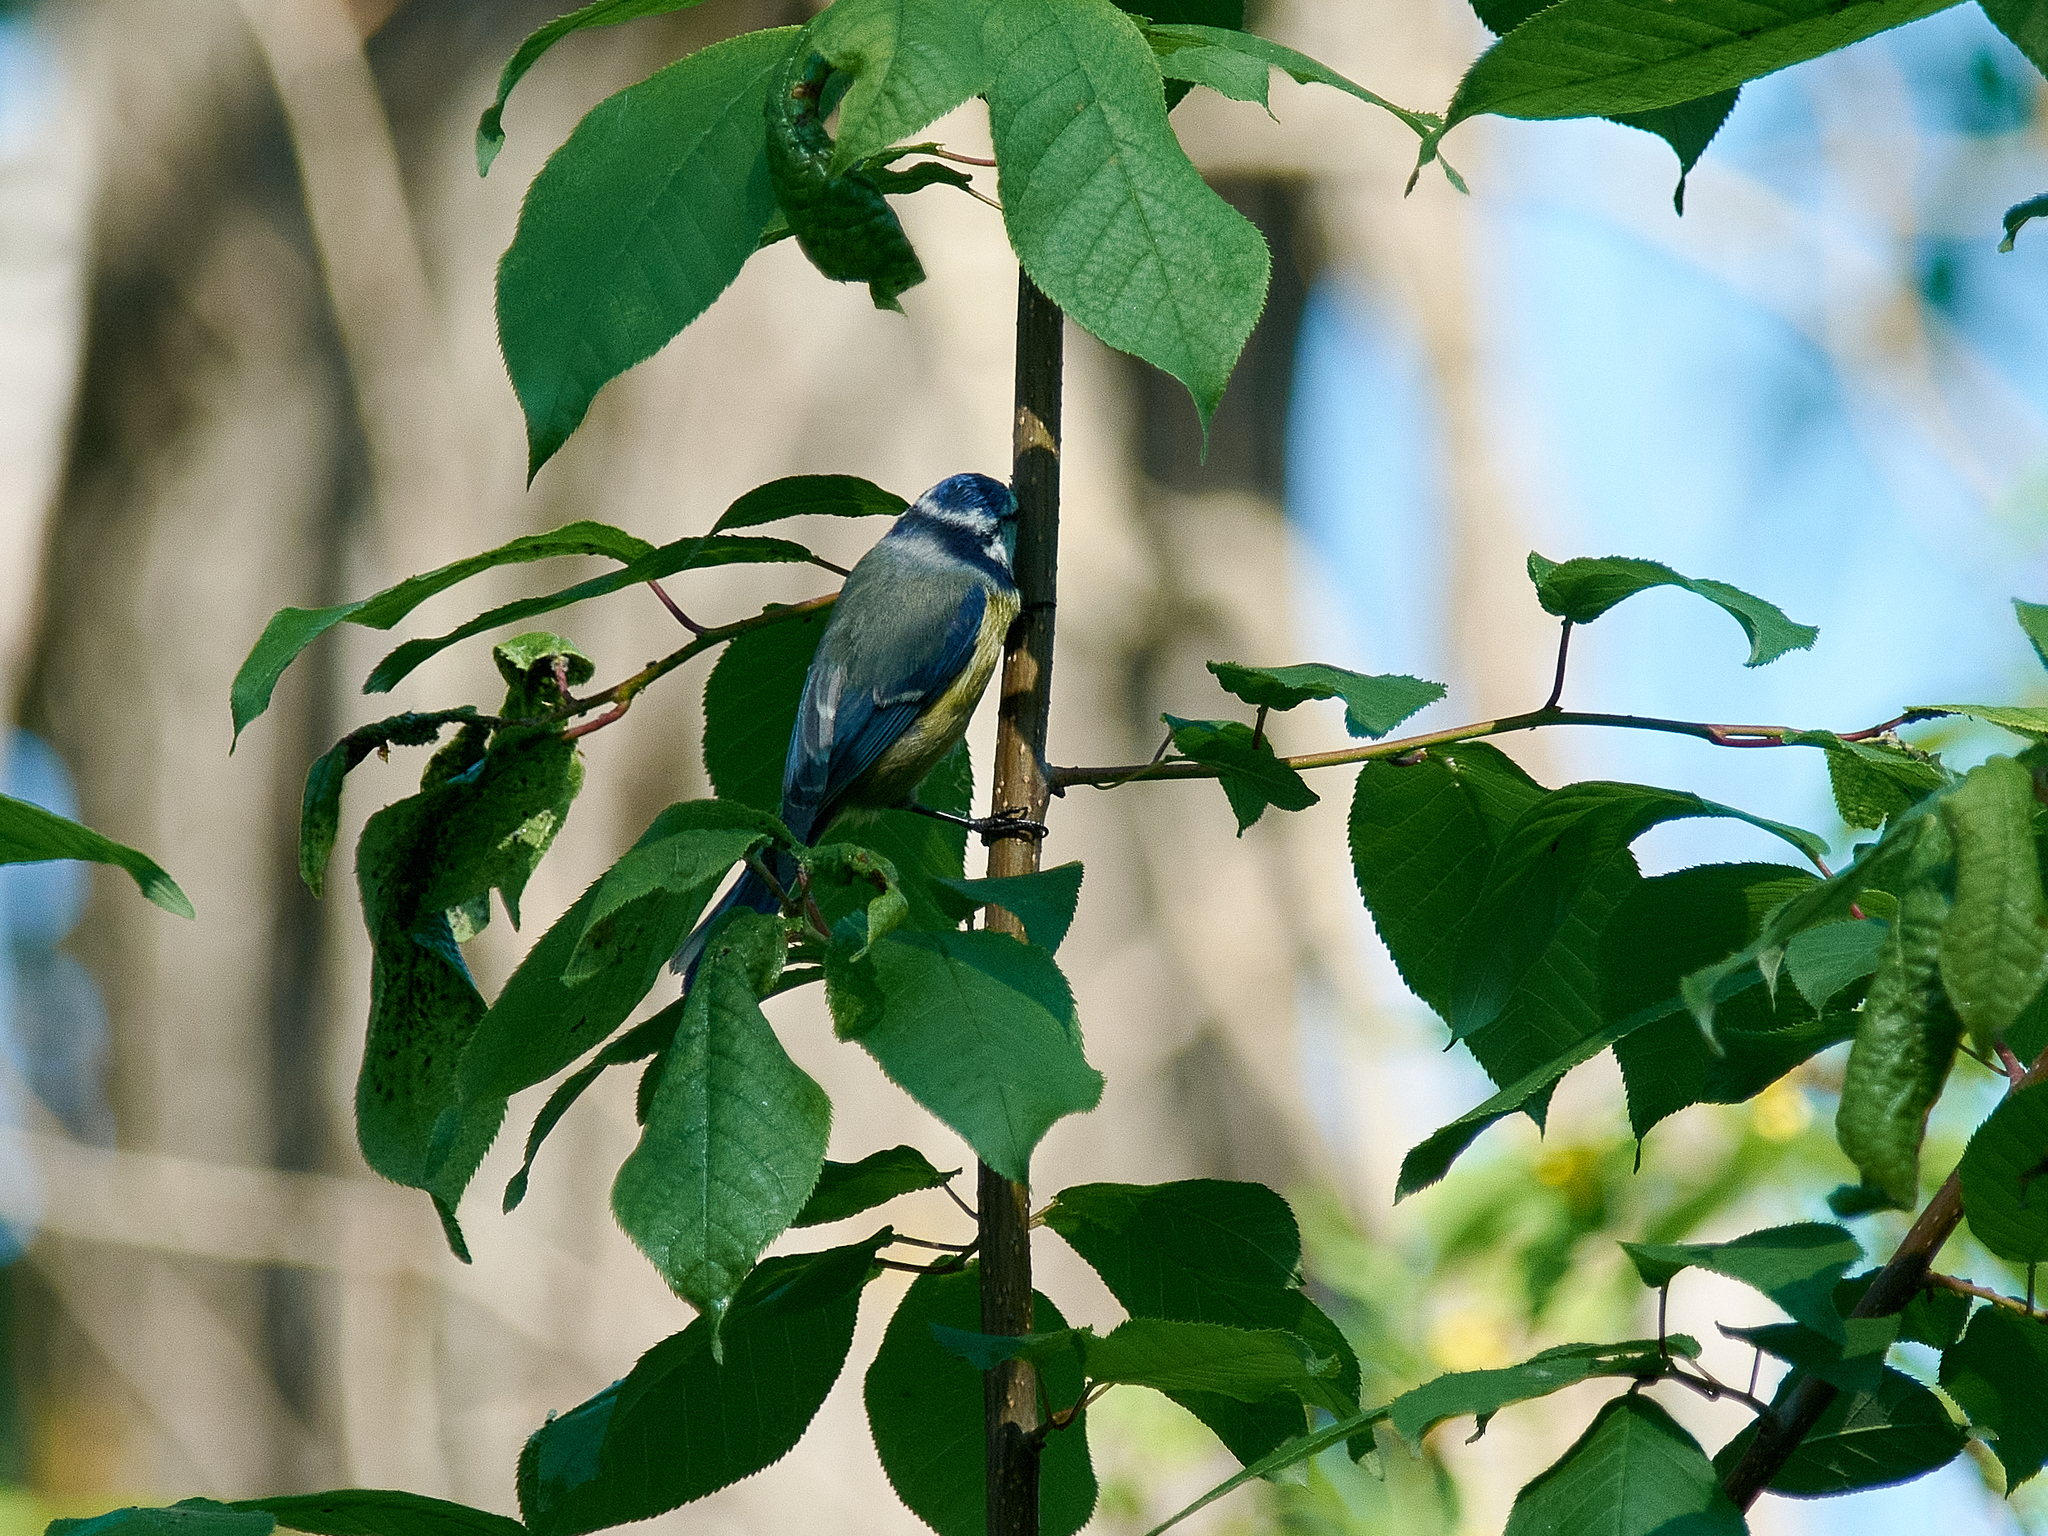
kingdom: Animalia
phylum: Chordata
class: Aves
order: Passeriformes
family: Paridae
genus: Cyanistes
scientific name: Cyanistes caeruleus
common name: Eurasian blue tit
